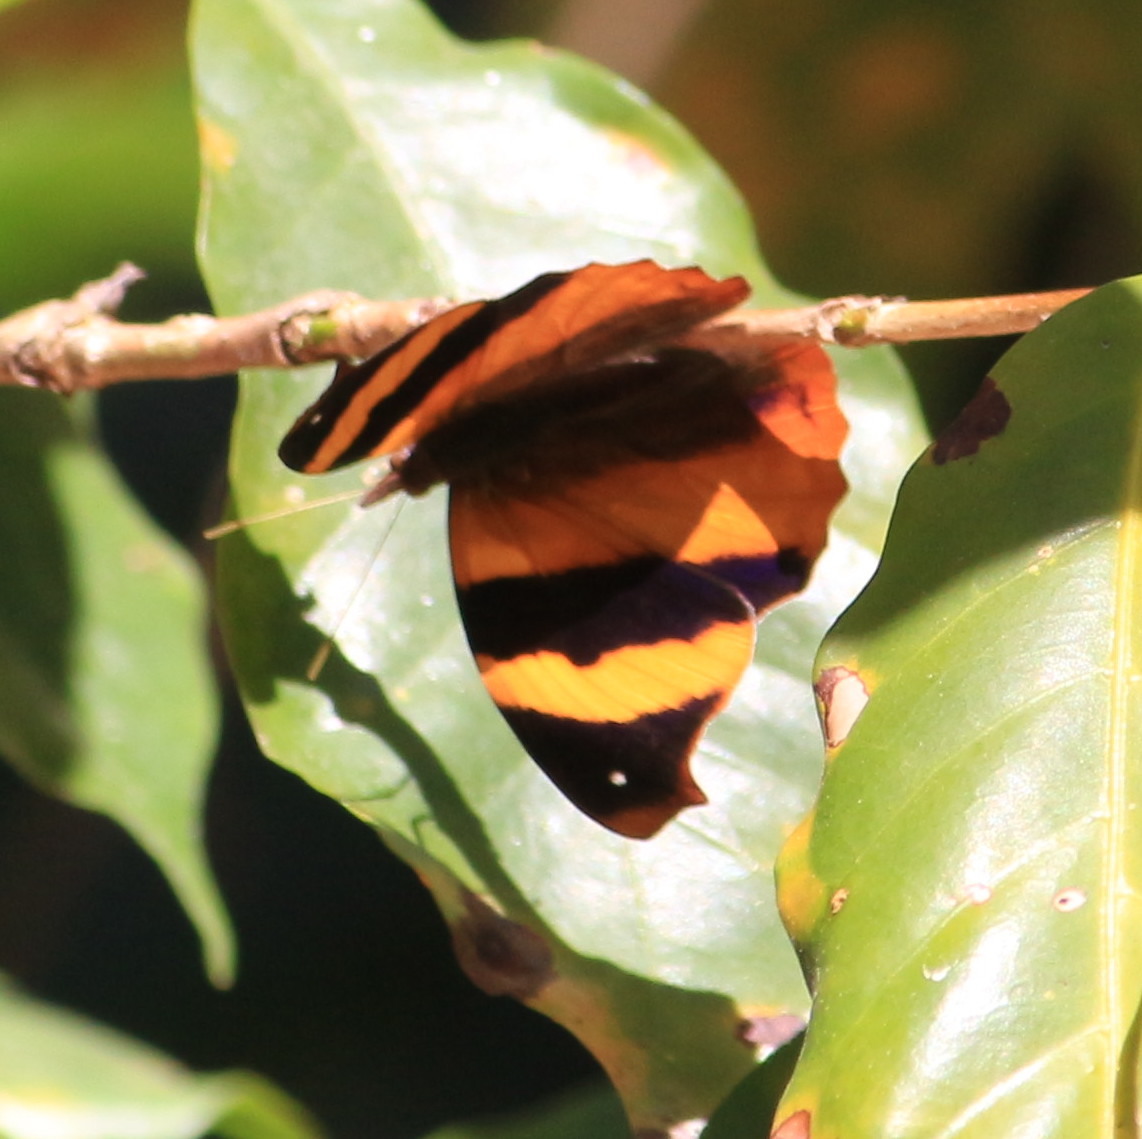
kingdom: Animalia
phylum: Arthropoda
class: Insecta
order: Lepidoptera
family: Nymphalidae
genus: Epiphile
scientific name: Epiphile adrasta
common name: Common banner
